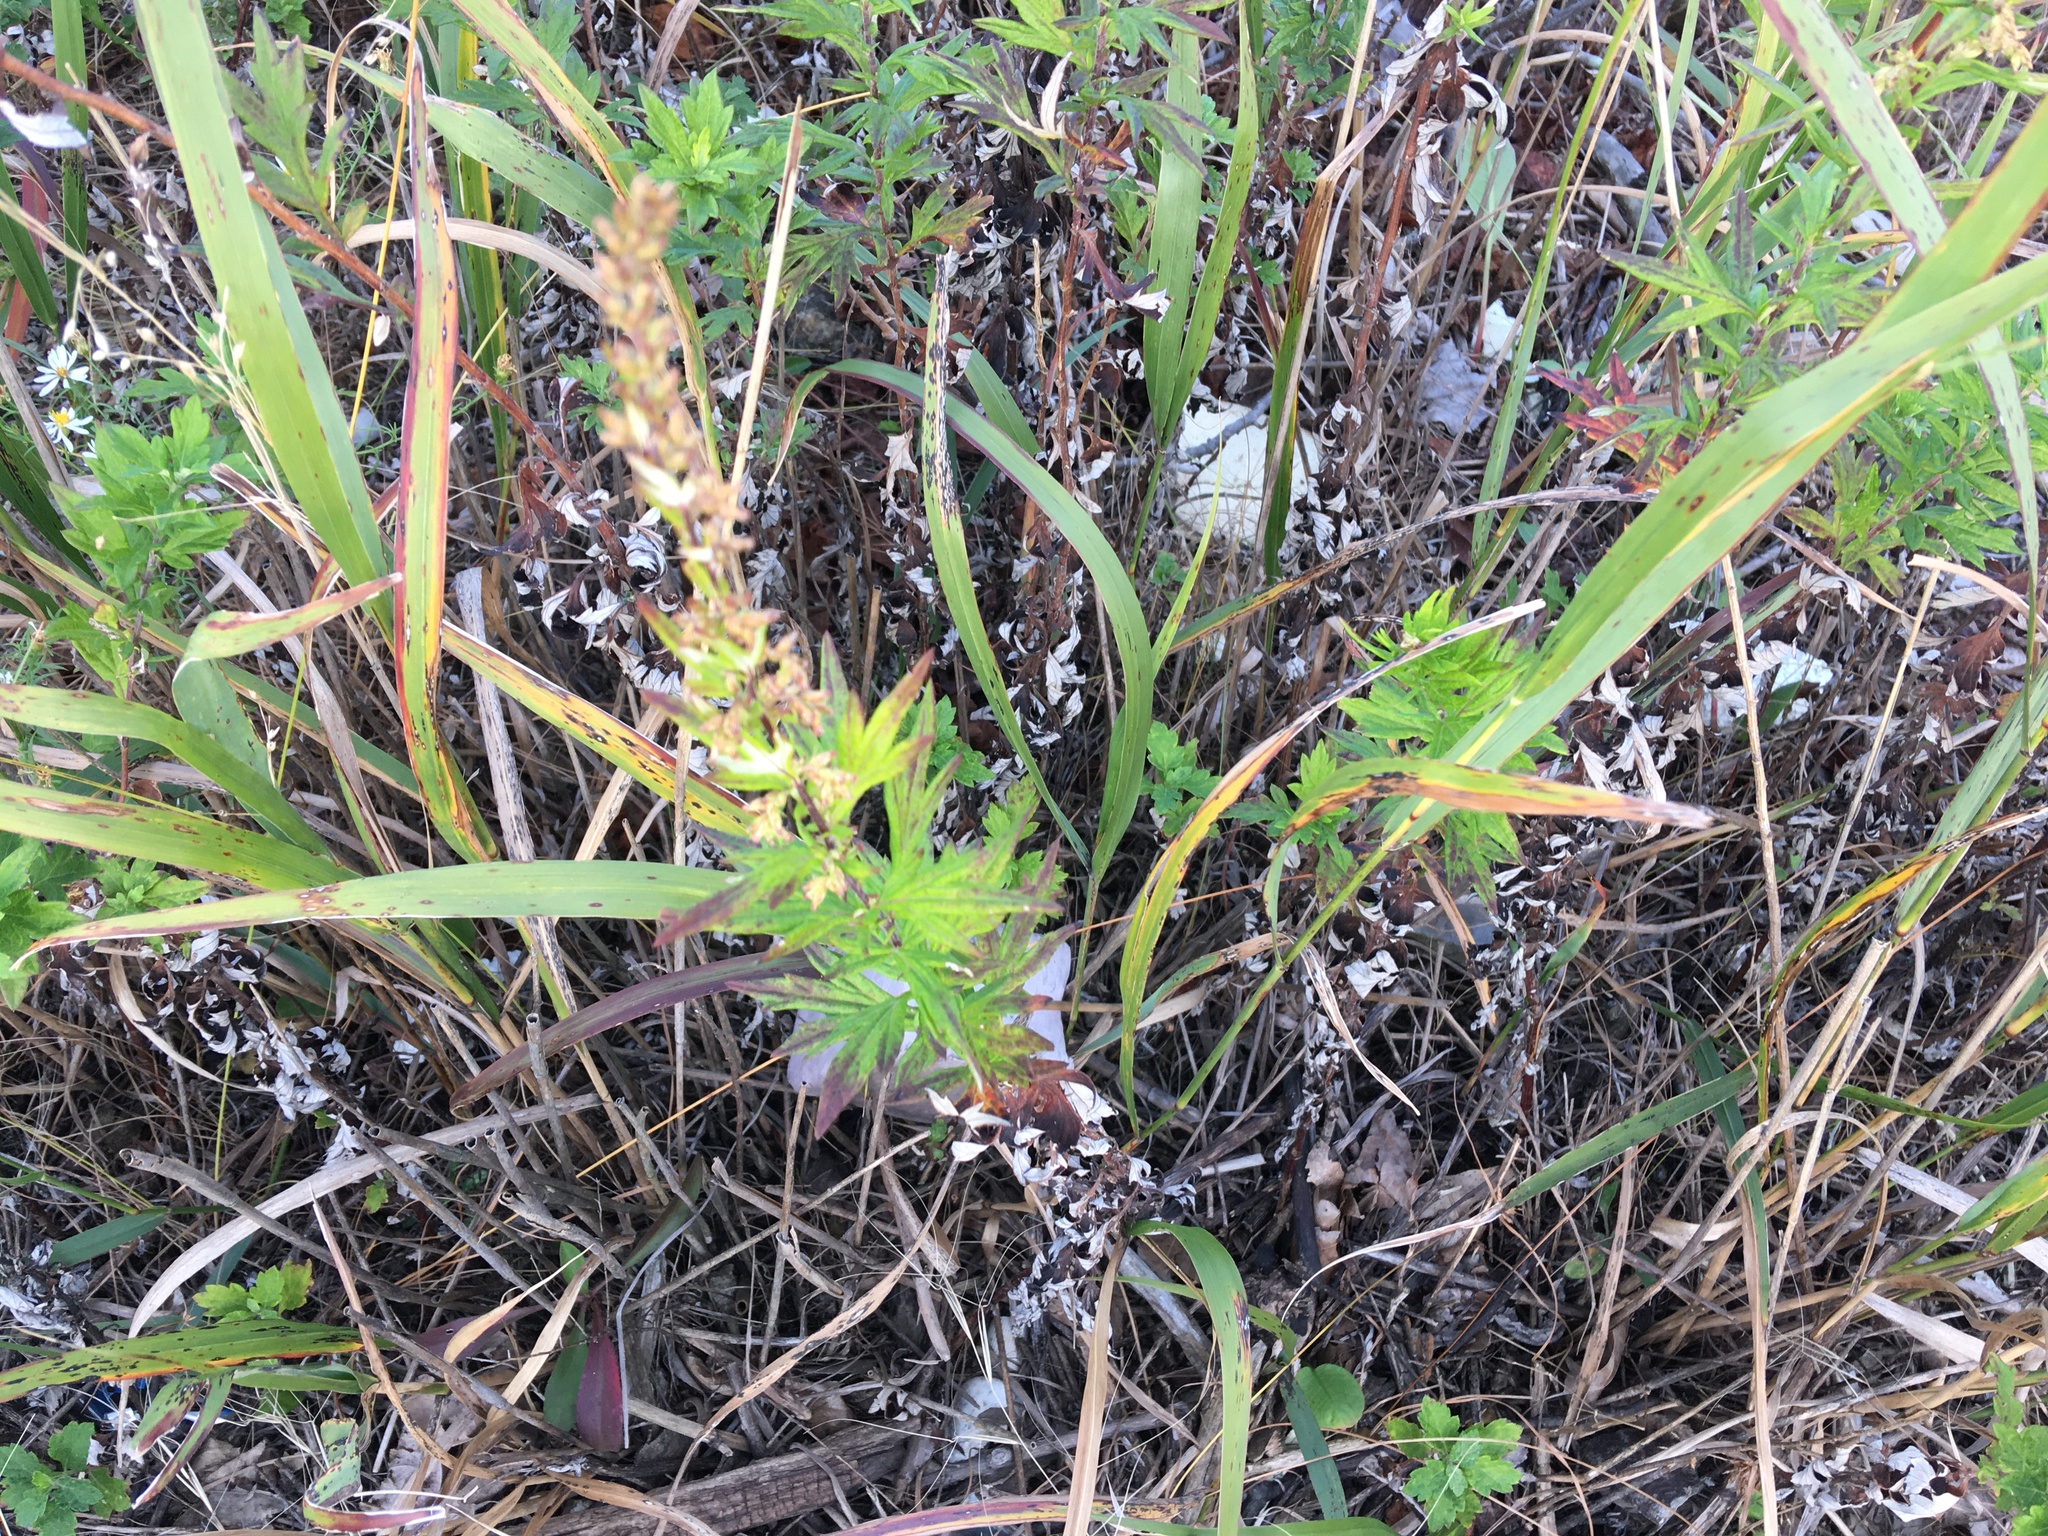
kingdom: Plantae
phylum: Tracheophyta
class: Magnoliopsida
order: Asterales
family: Asteraceae
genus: Artemisia
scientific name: Artemisia vulgaris
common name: Mugwort
